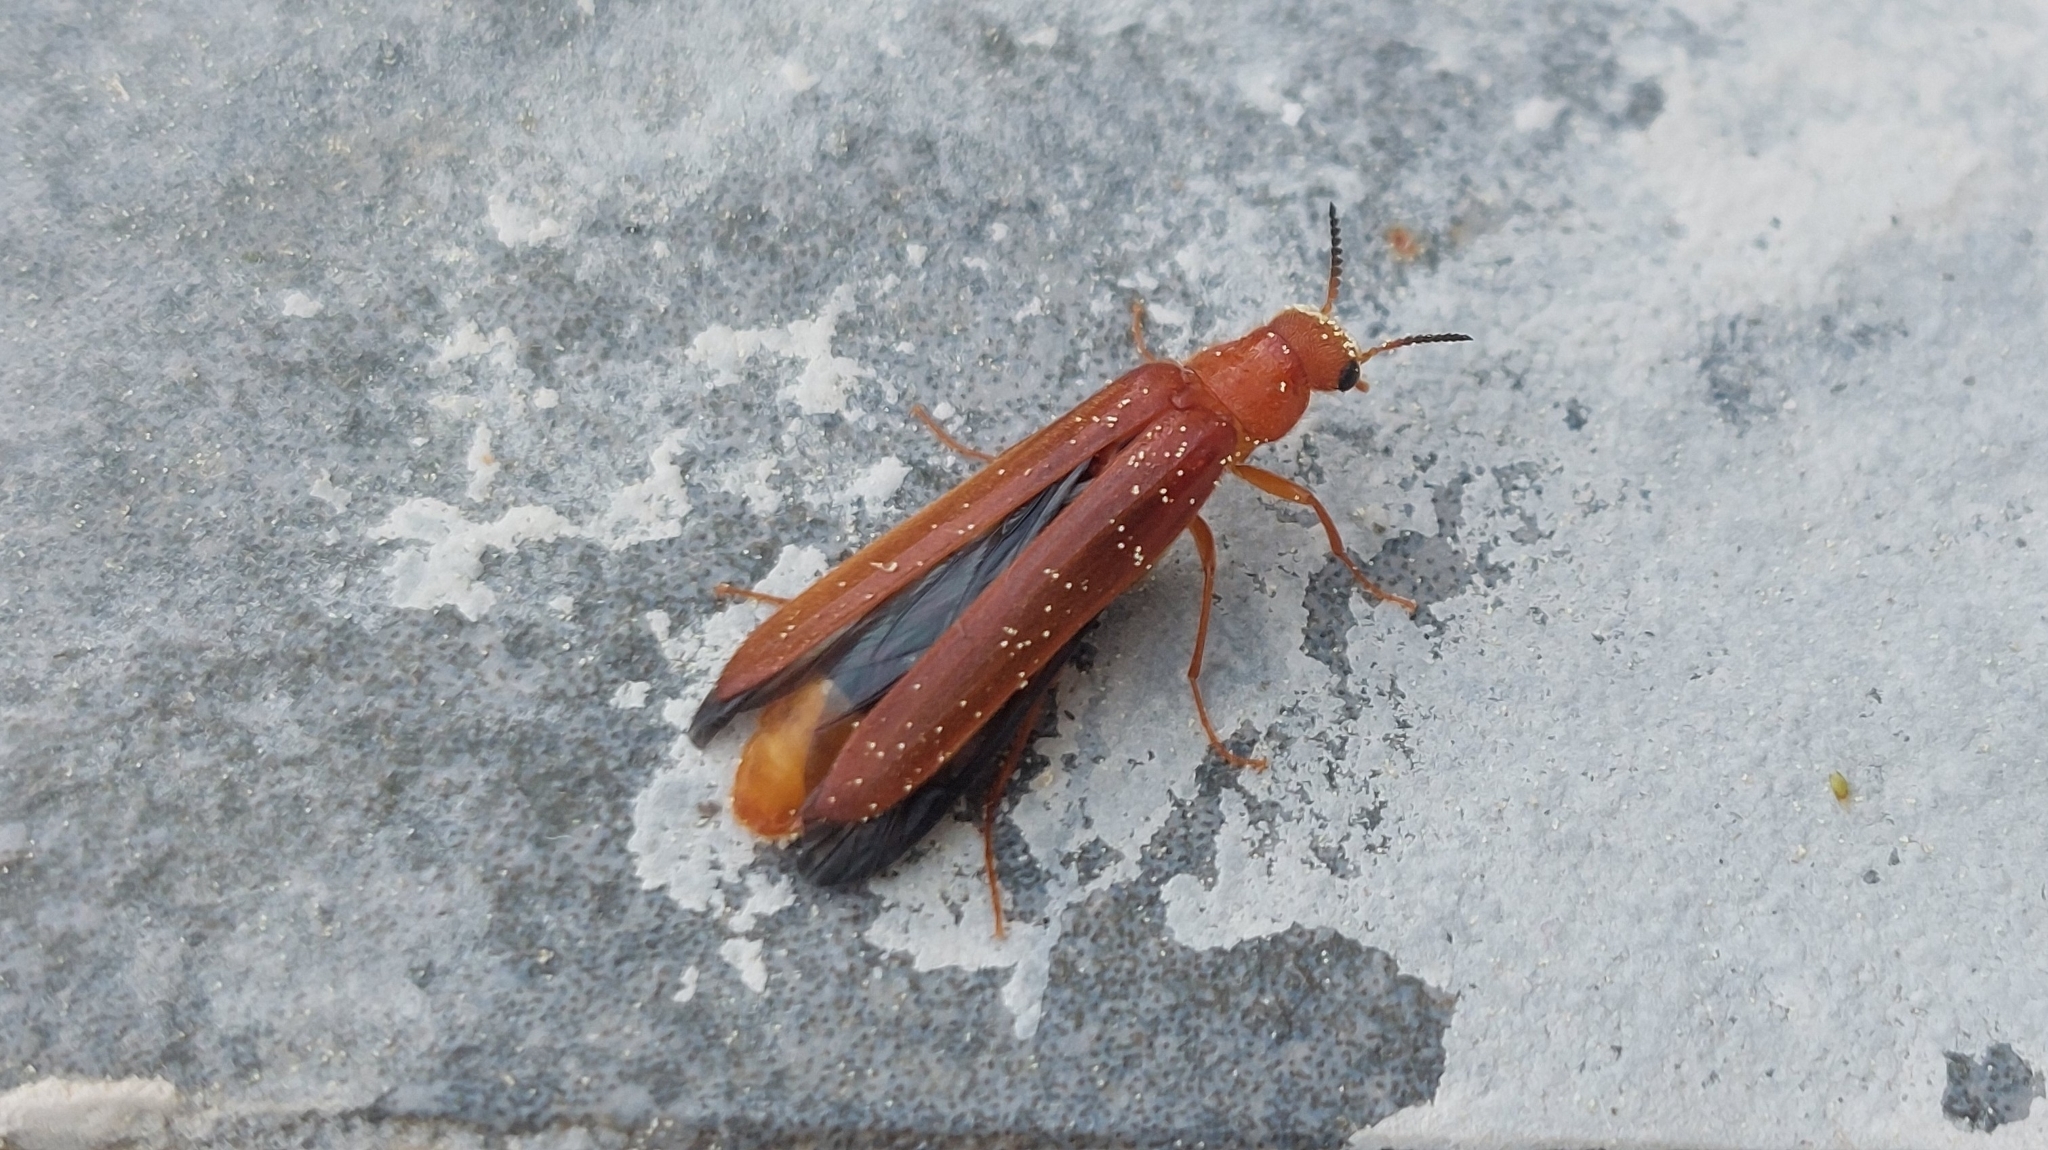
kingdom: Animalia
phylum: Arthropoda
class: Insecta
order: Coleoptera
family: Lymexylidae
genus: Hylecoetus
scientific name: Hylecoetus dermestoides
